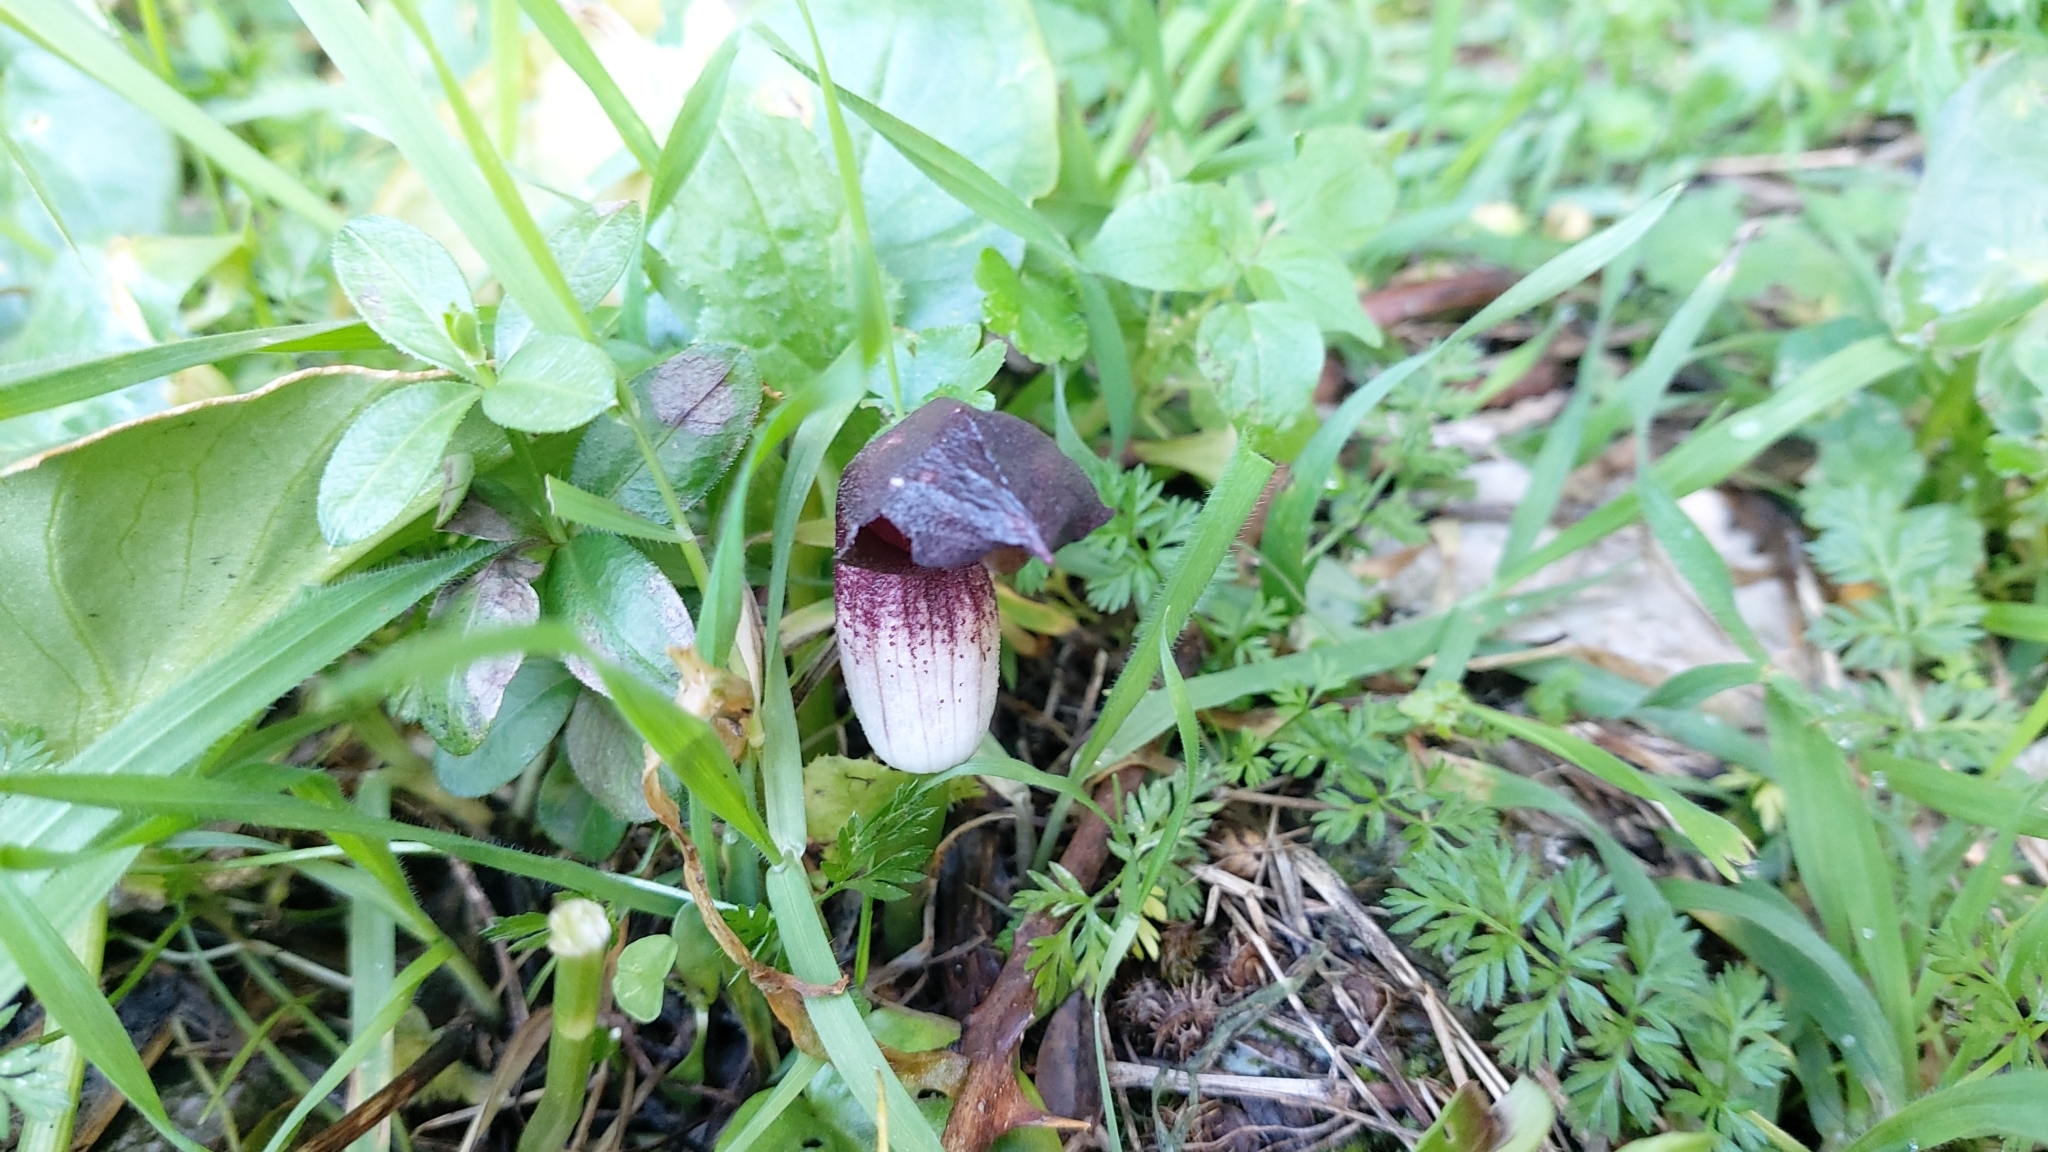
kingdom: Plantae
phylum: Tracheophyta
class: Liliopsida
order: Alismatales
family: Araceae
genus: Arisarum
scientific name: Arisarum simorrhinum
